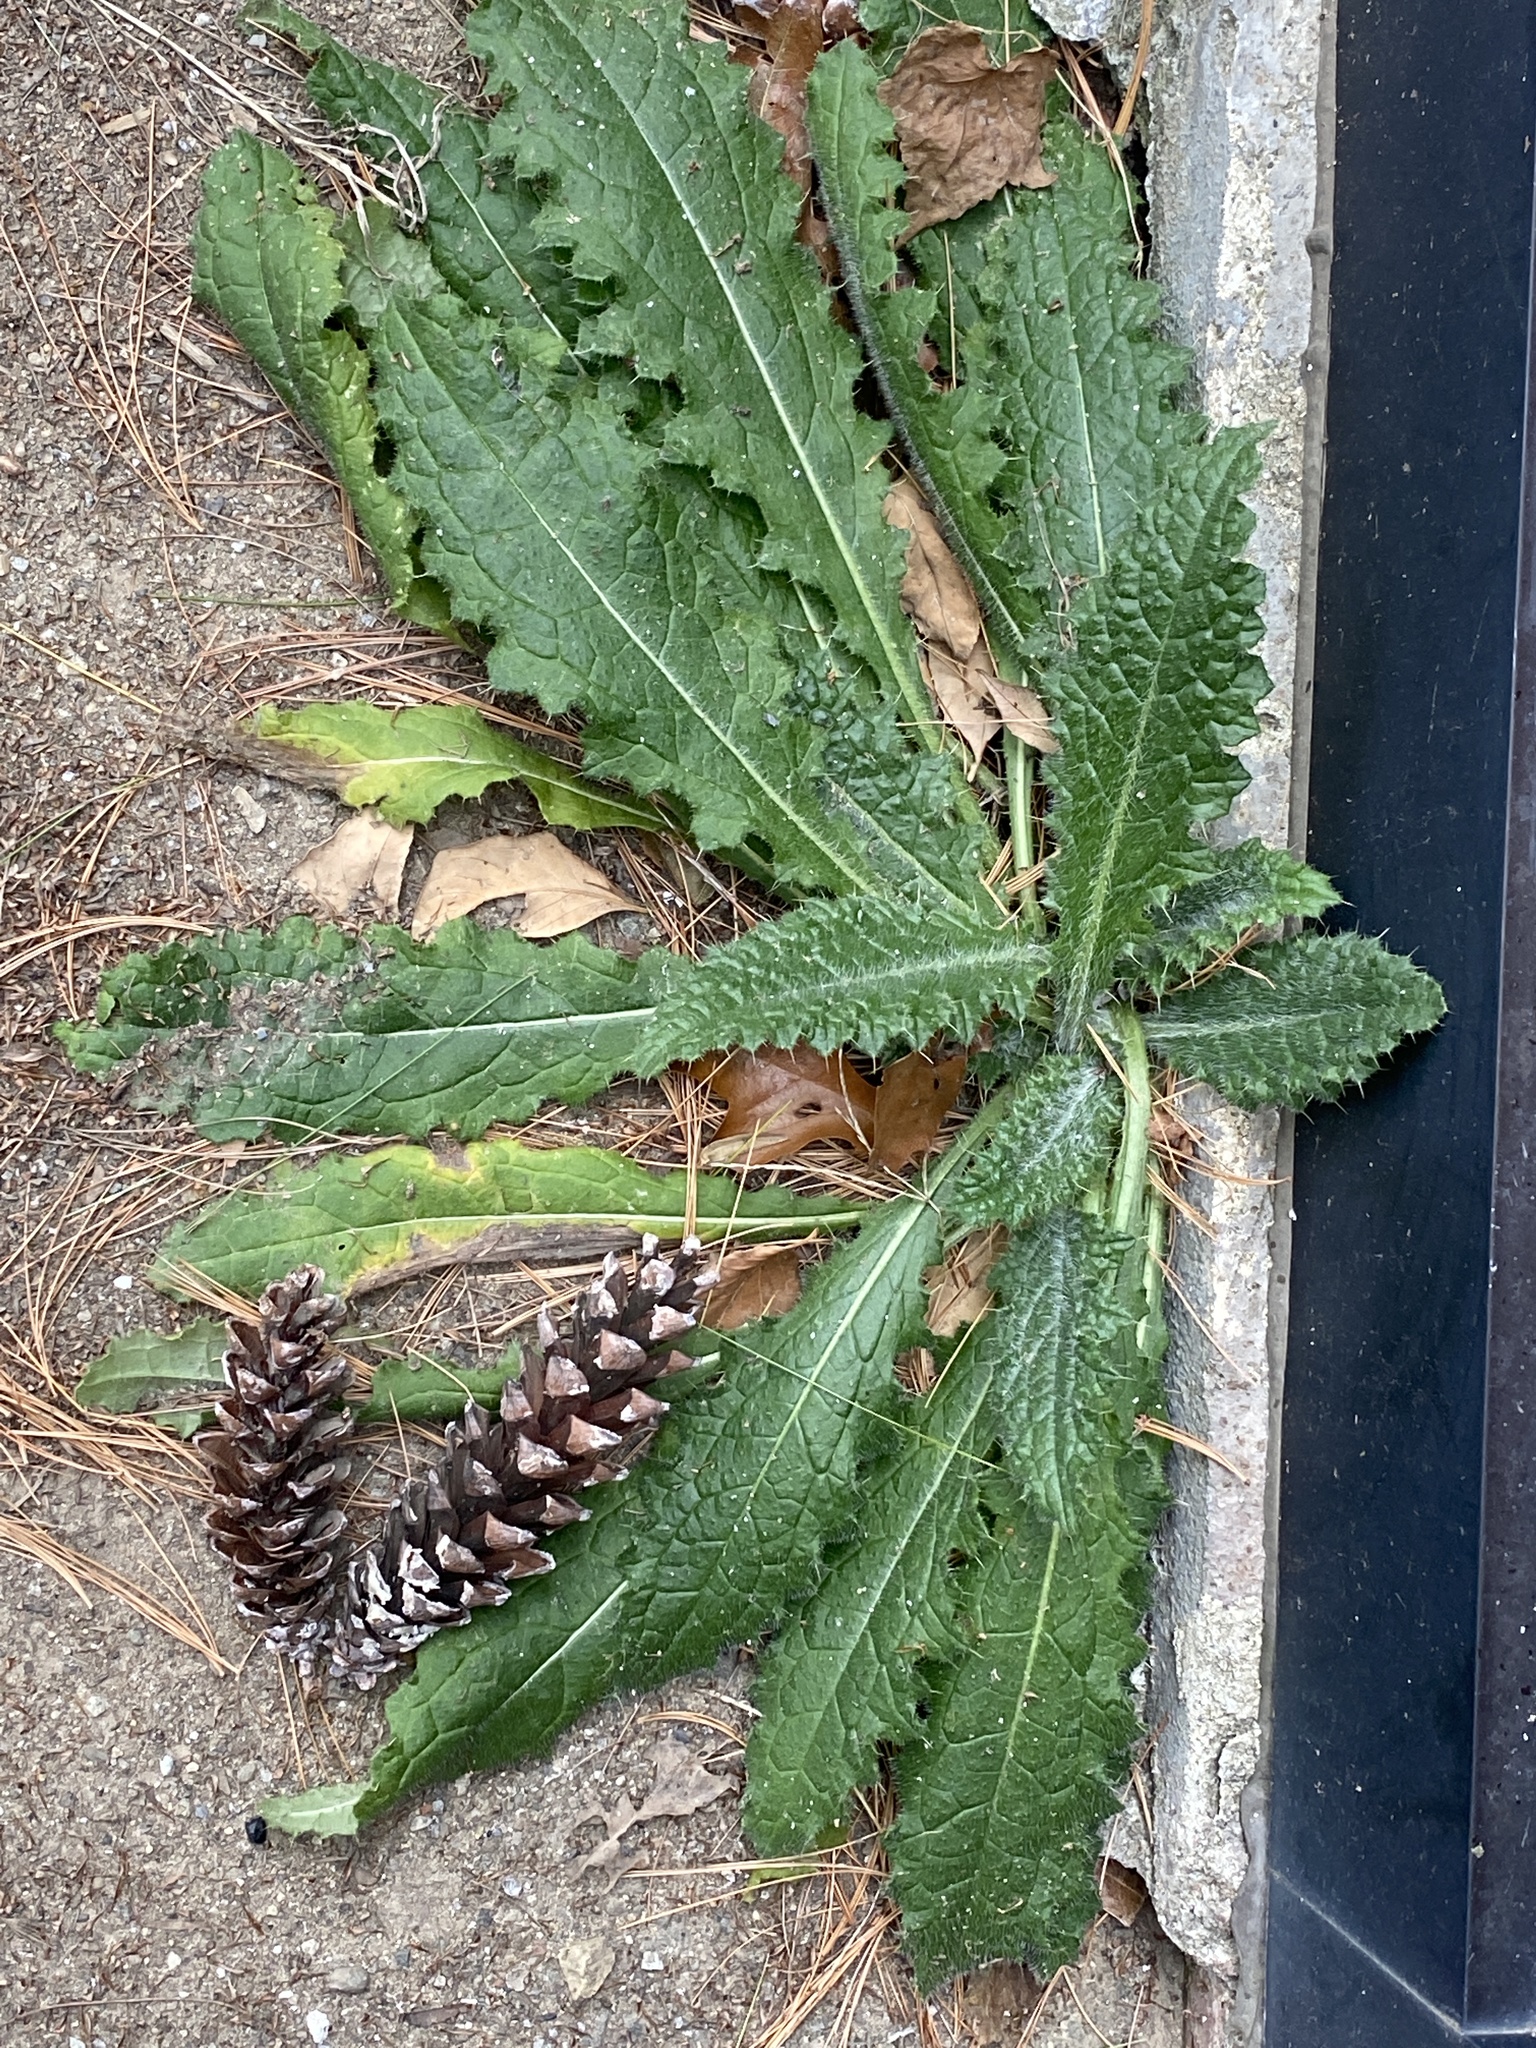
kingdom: Plantae
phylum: Tracheophyta
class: Magnoliopsida
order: Asterales
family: Asteraceae
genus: Cirsium
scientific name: Cirsium vulgare
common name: Bull thistle
